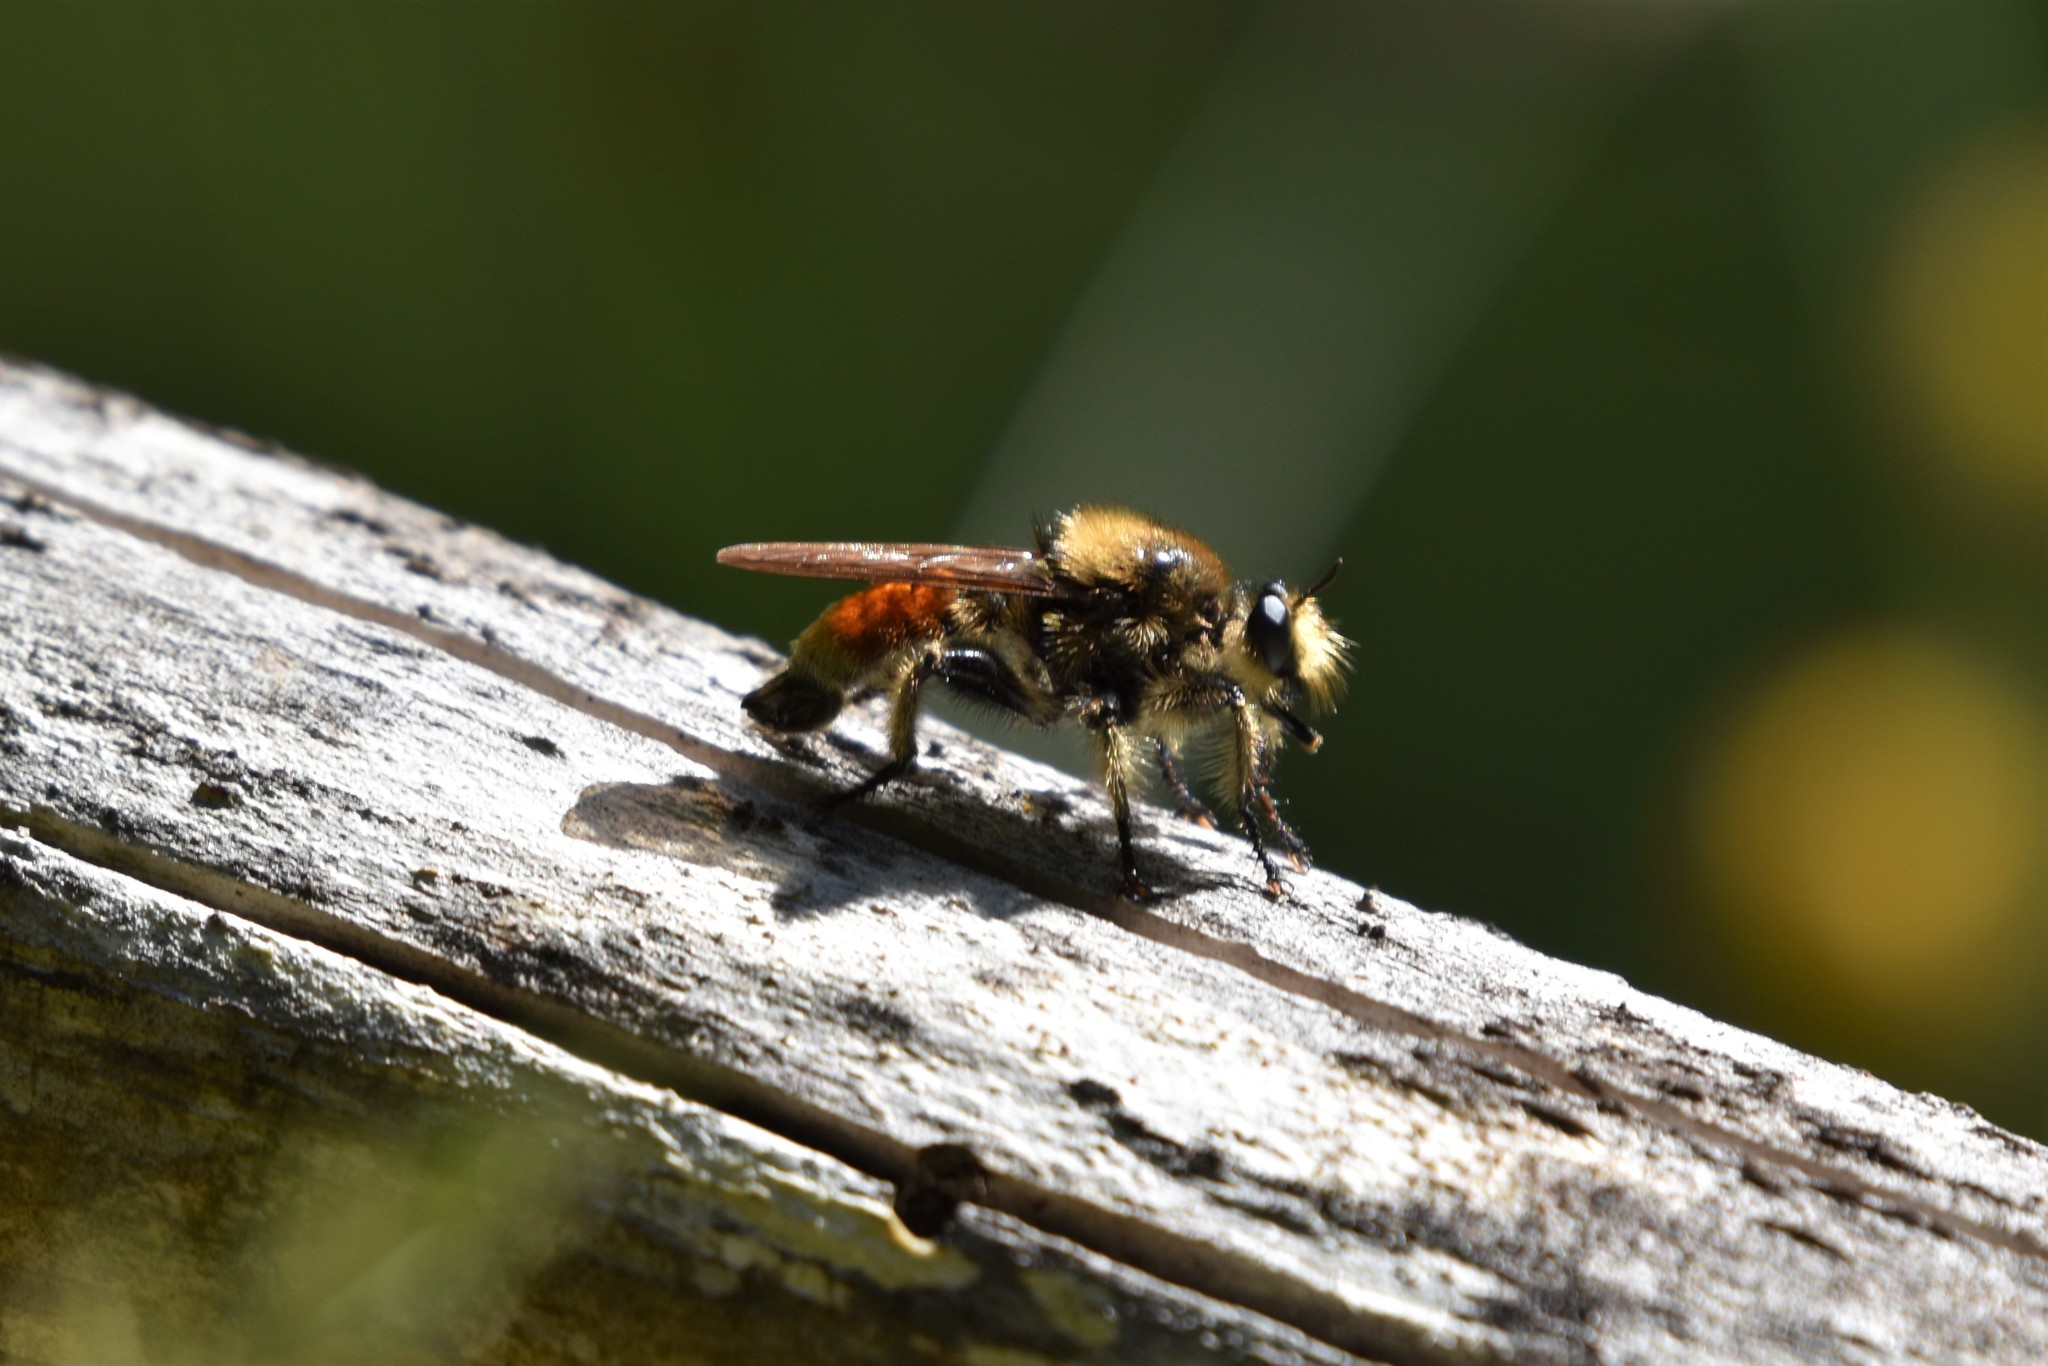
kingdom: Animalia
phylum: Arthropoda
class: Insecta
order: Diptera
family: Asilidae
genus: Laphria
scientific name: Laphria fernaldi
